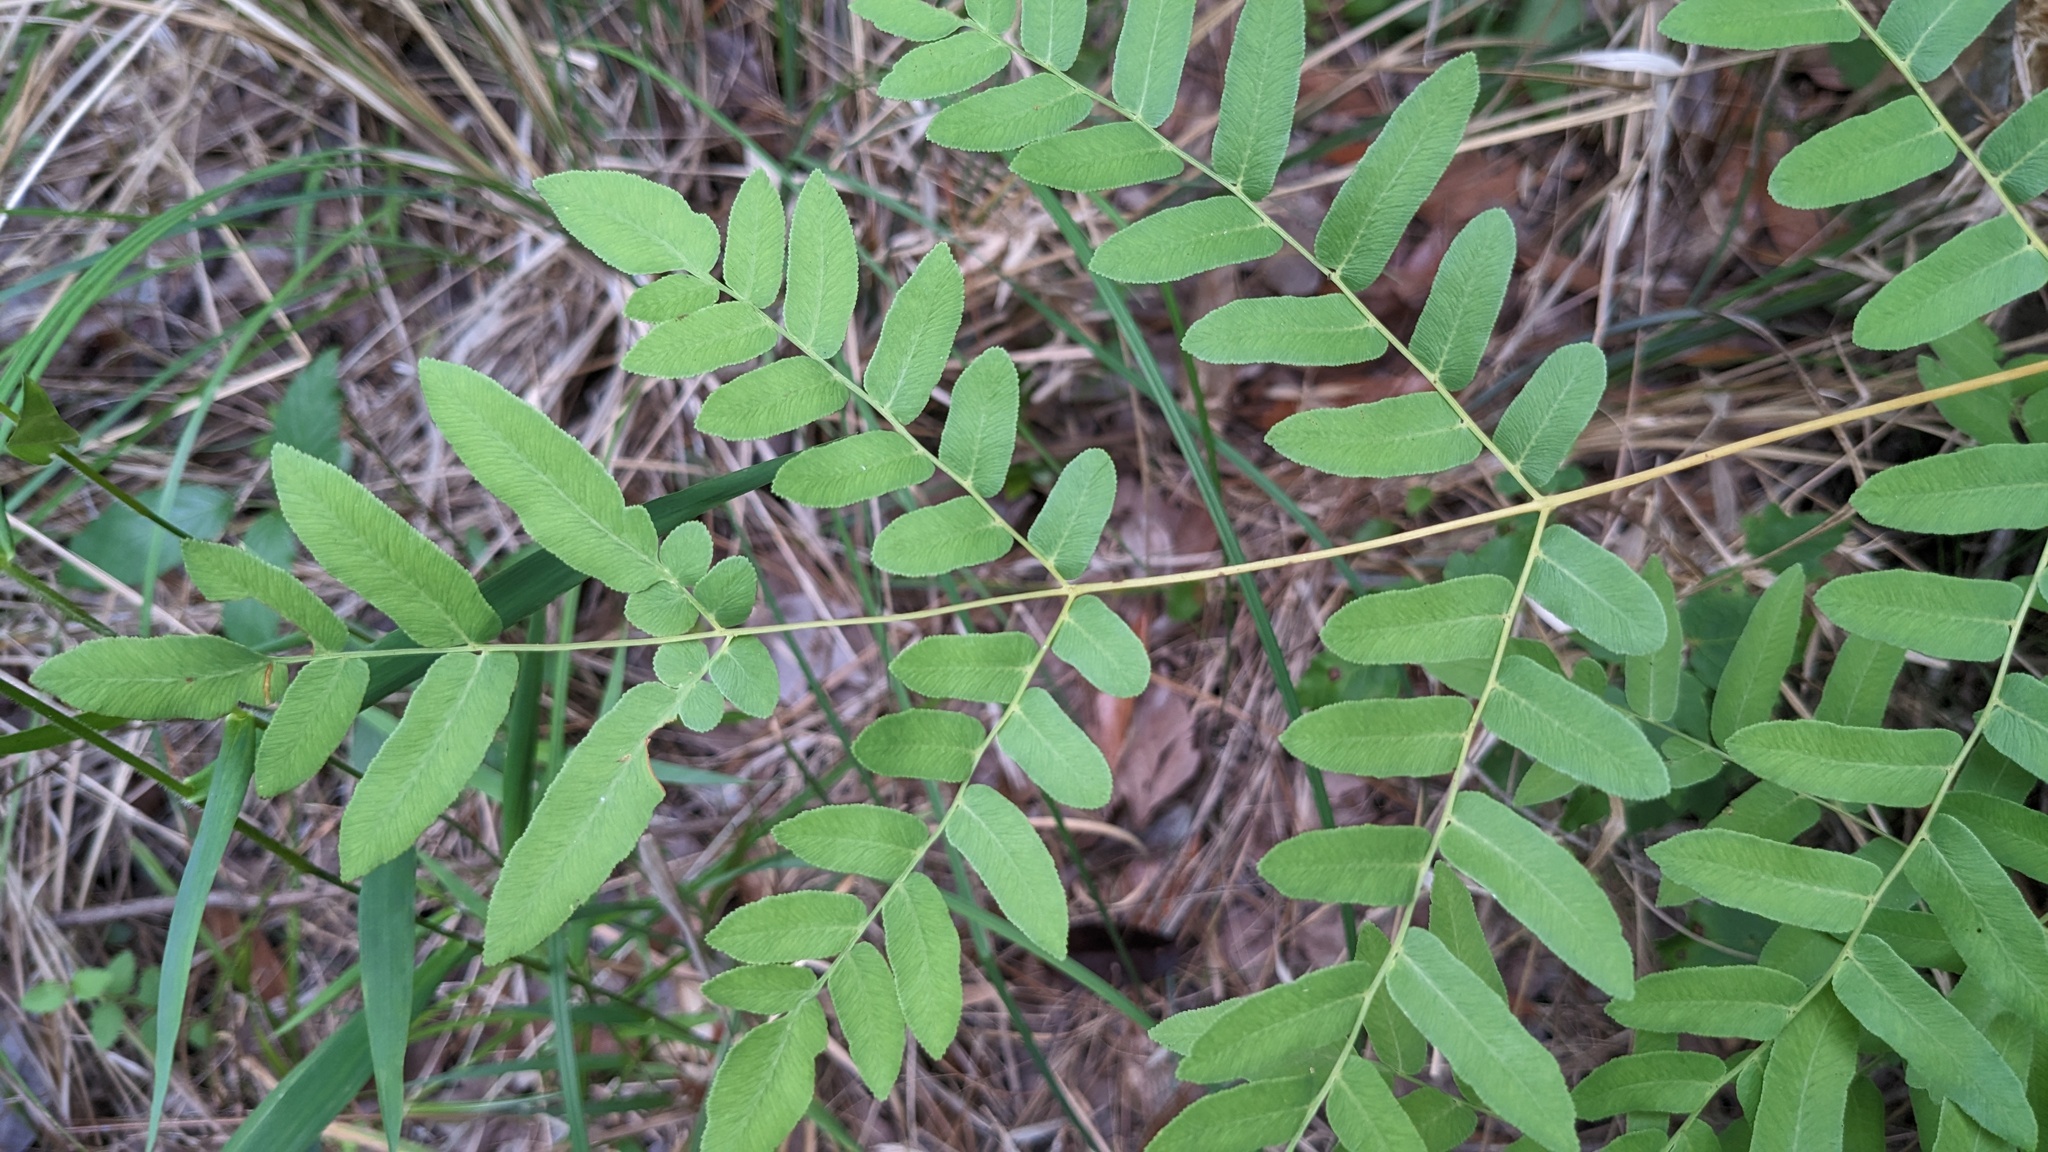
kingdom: Plantae
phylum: Tracheophyta
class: Polypodiopsida
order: Osmundales
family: Osmundaceae
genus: Osmunda
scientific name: Osmunda spectabilis
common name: American royal fern
